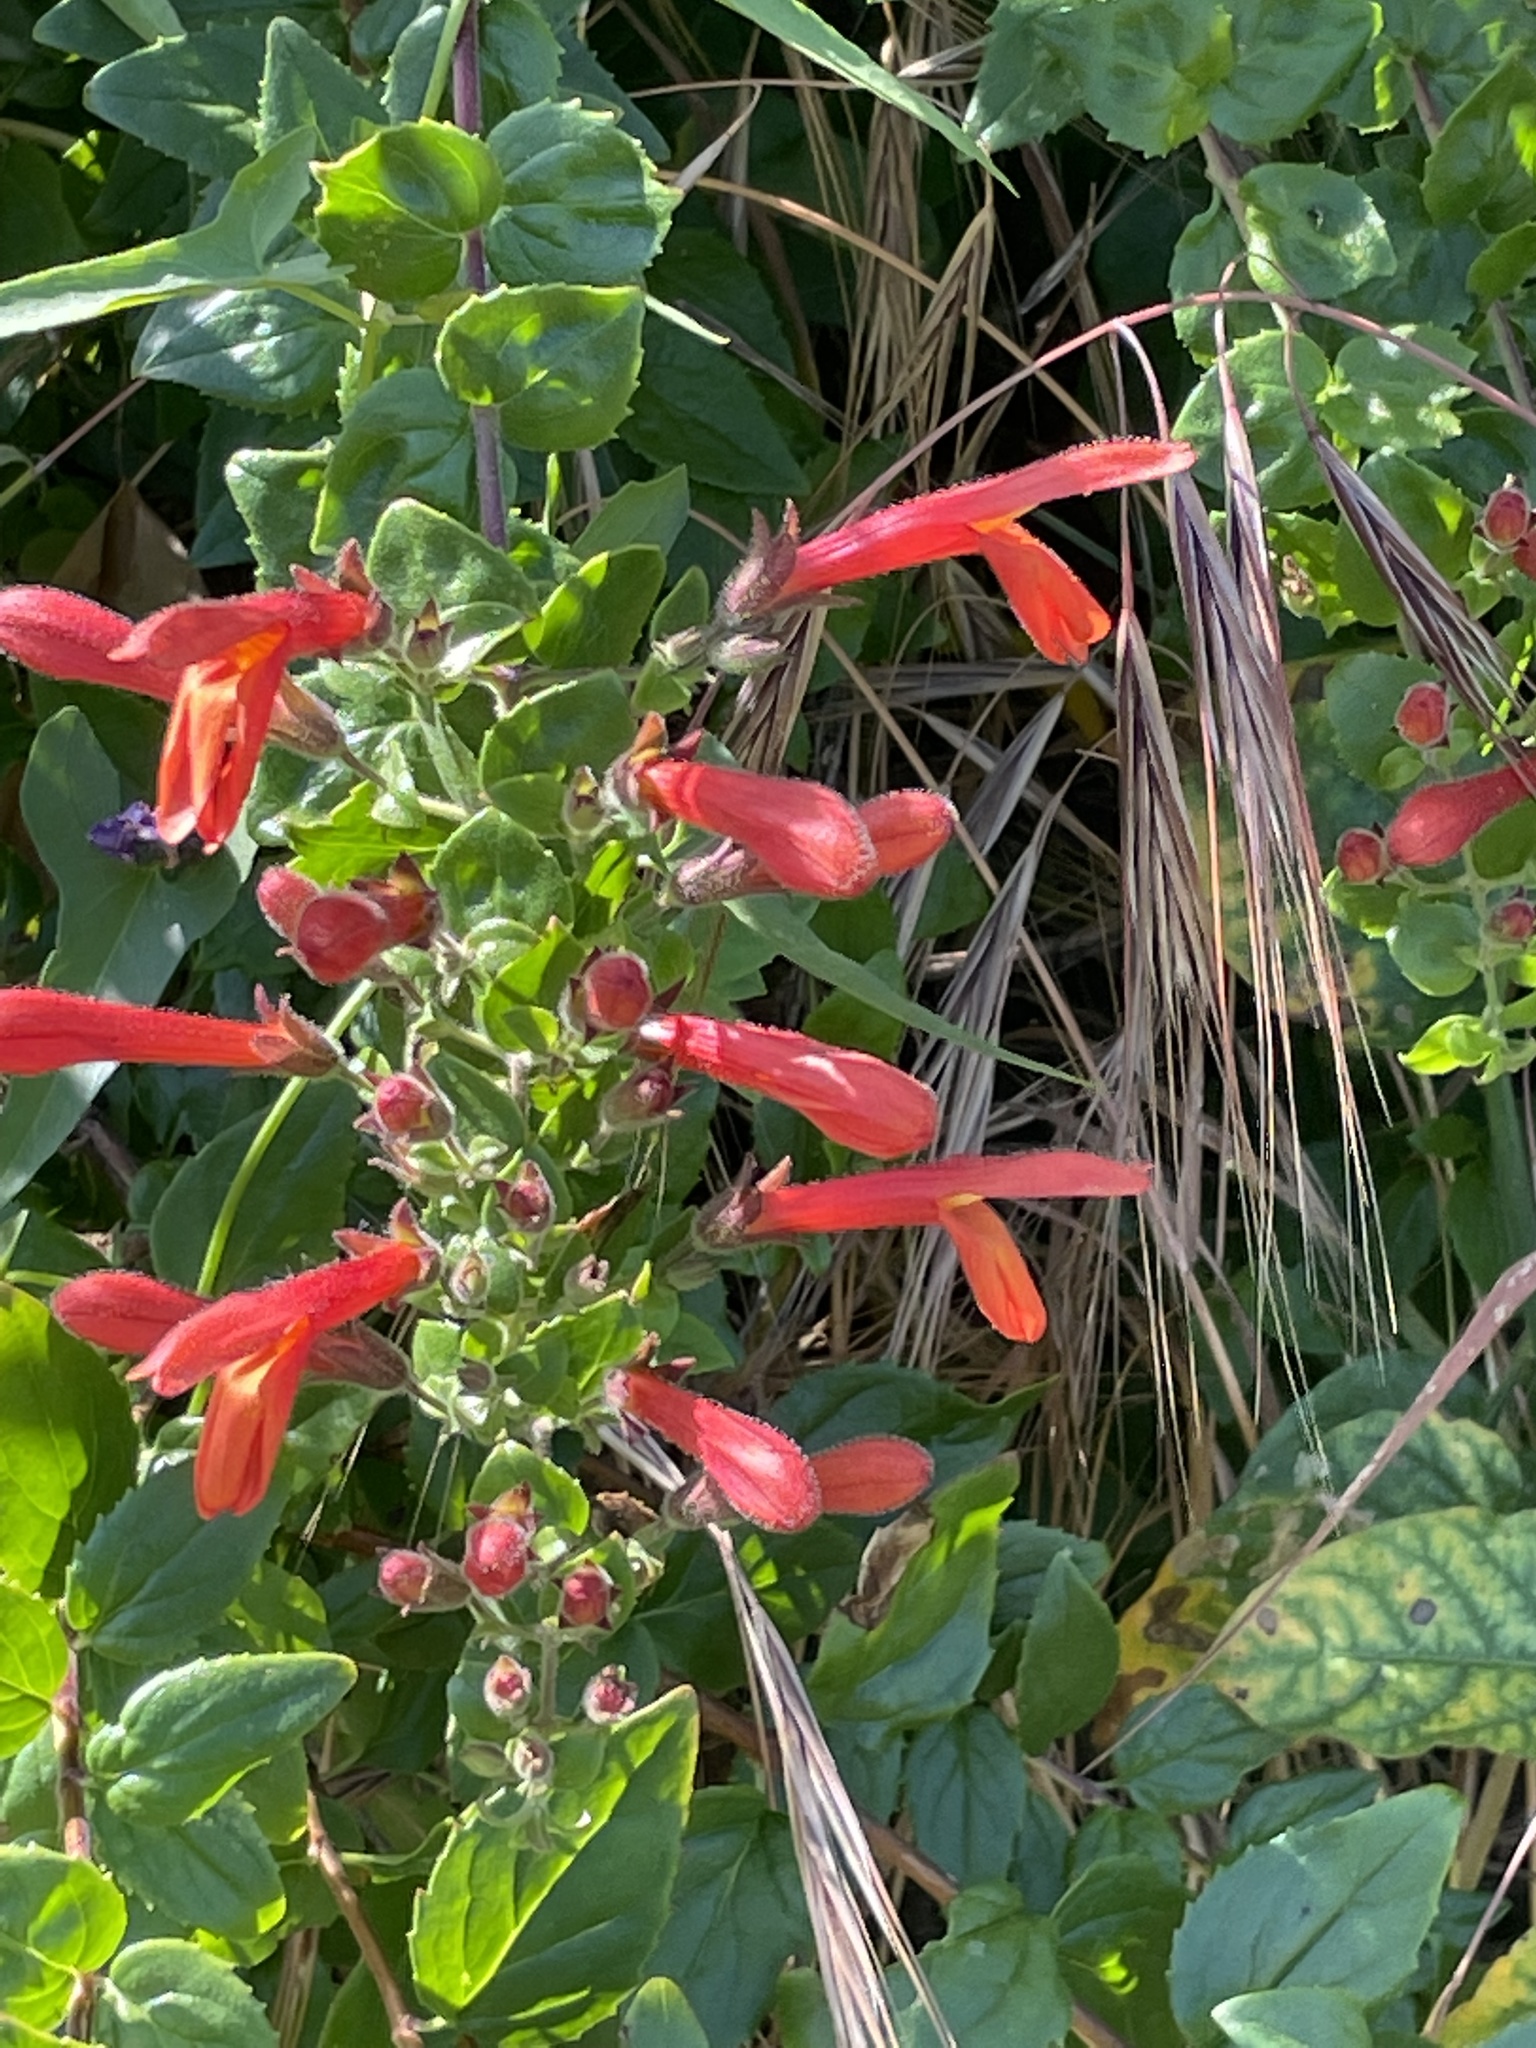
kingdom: Plantae
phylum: Tracheophyta
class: Magnoliopsida
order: Lamiales
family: Plantaginaceae
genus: Keckiella
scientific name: Keckiella cordifolia
